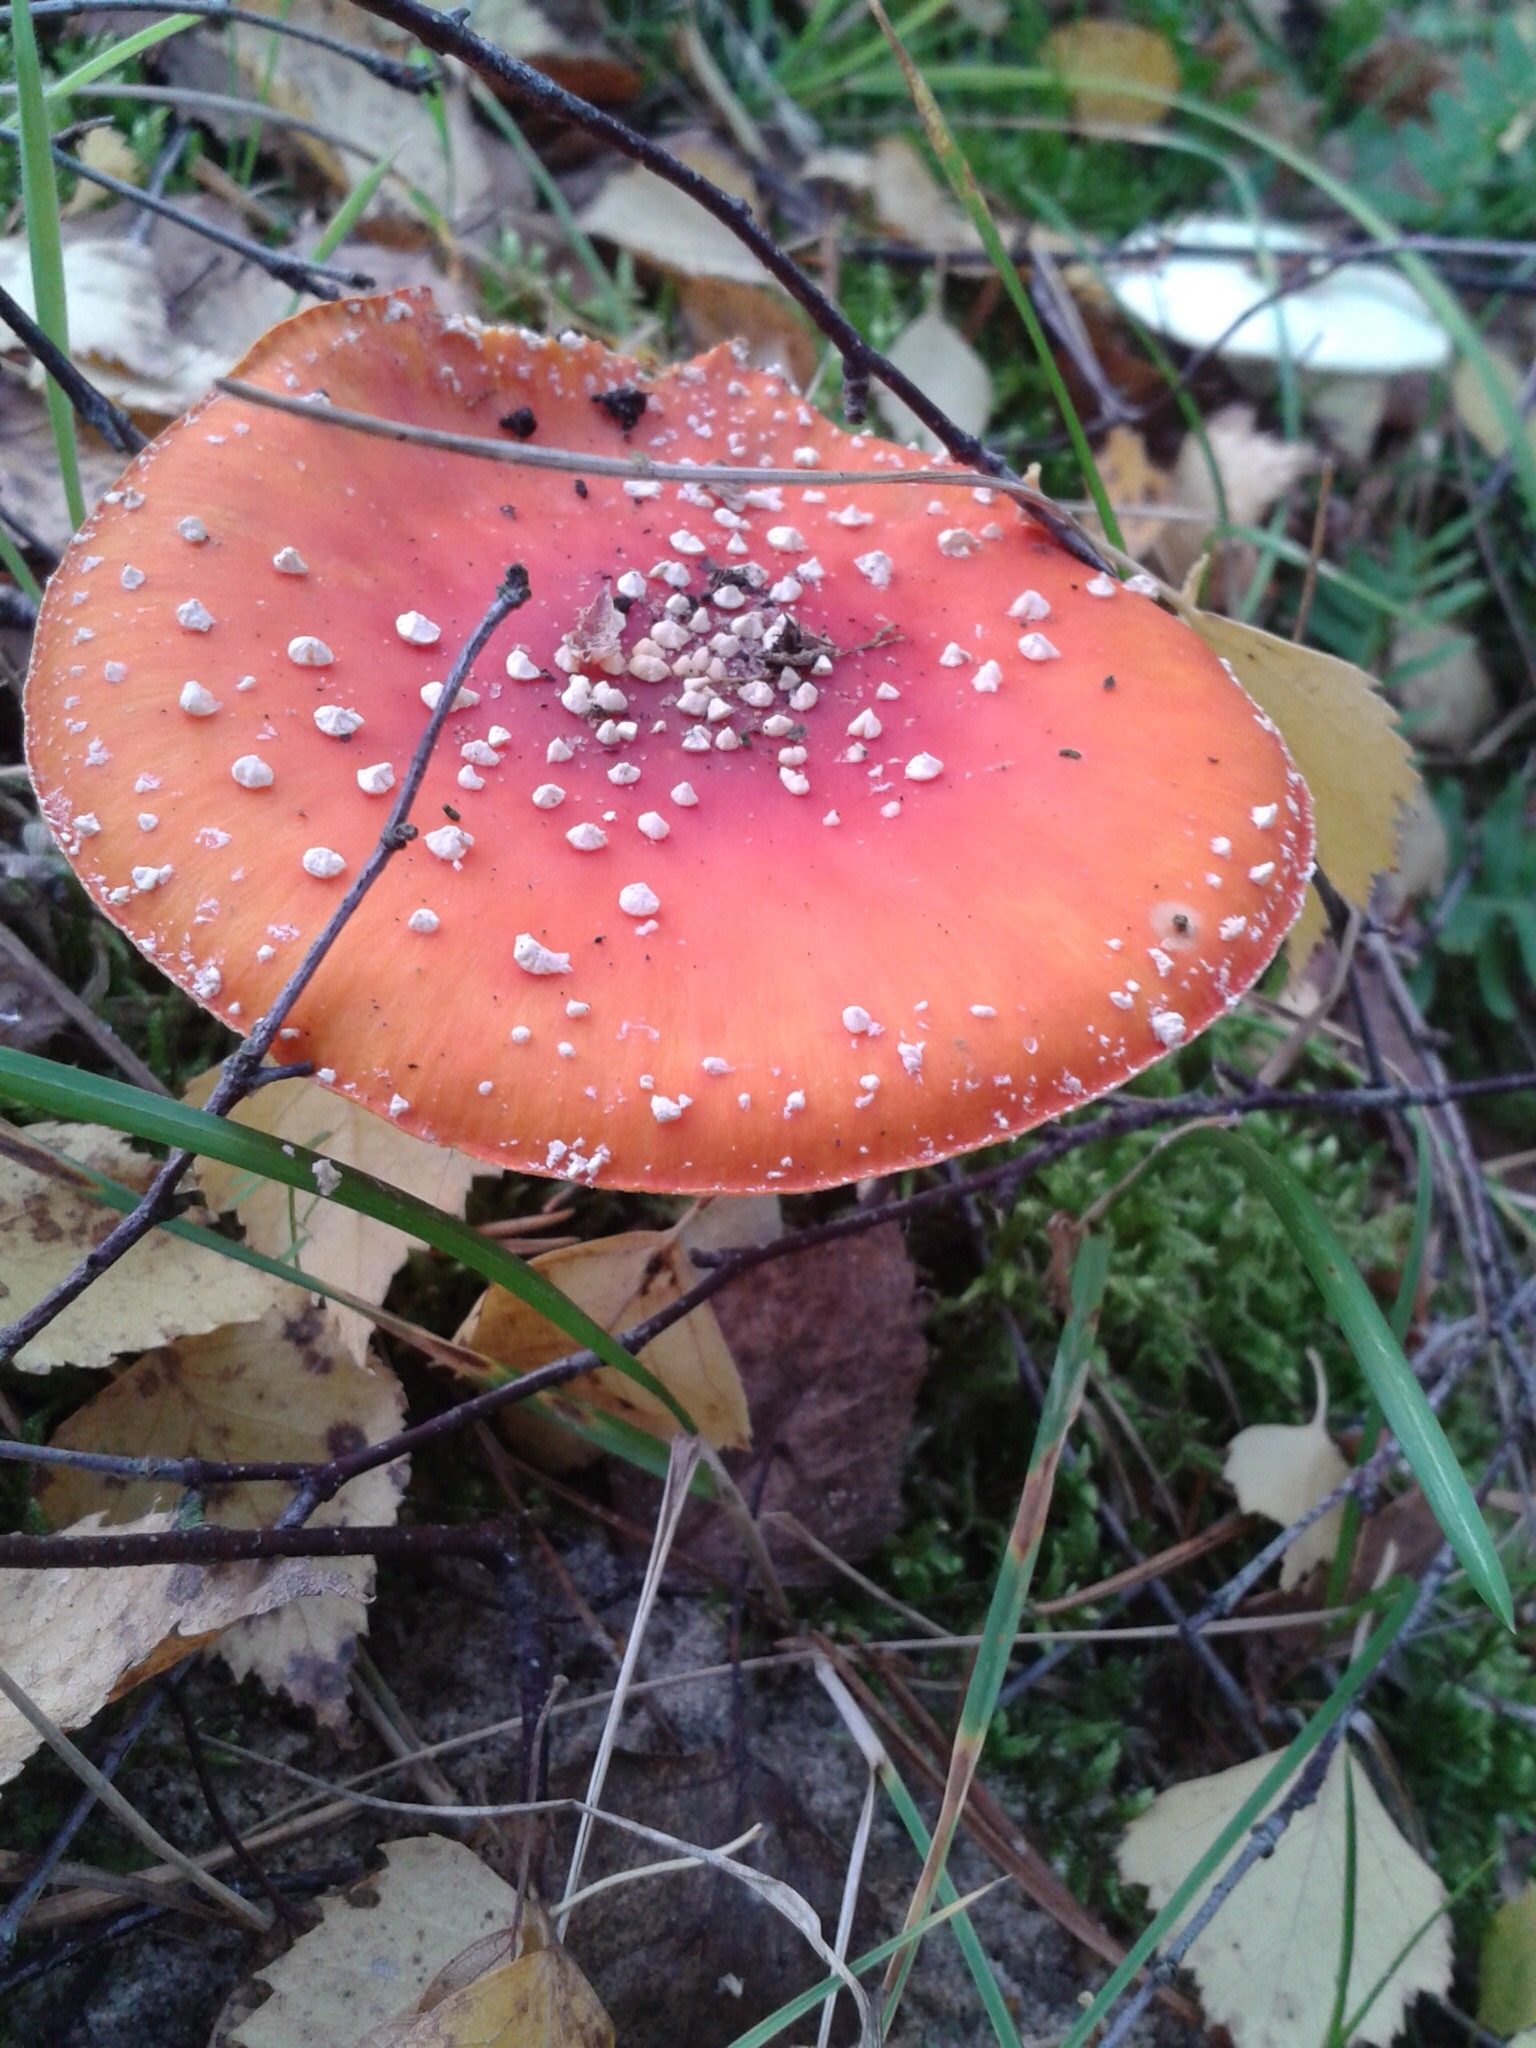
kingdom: Fungi
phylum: Basidiomycota
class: Agaricomycetes
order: Agaricales
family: Amanitaceae
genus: Amanita
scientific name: Amanita muscaria
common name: Fly agaric
